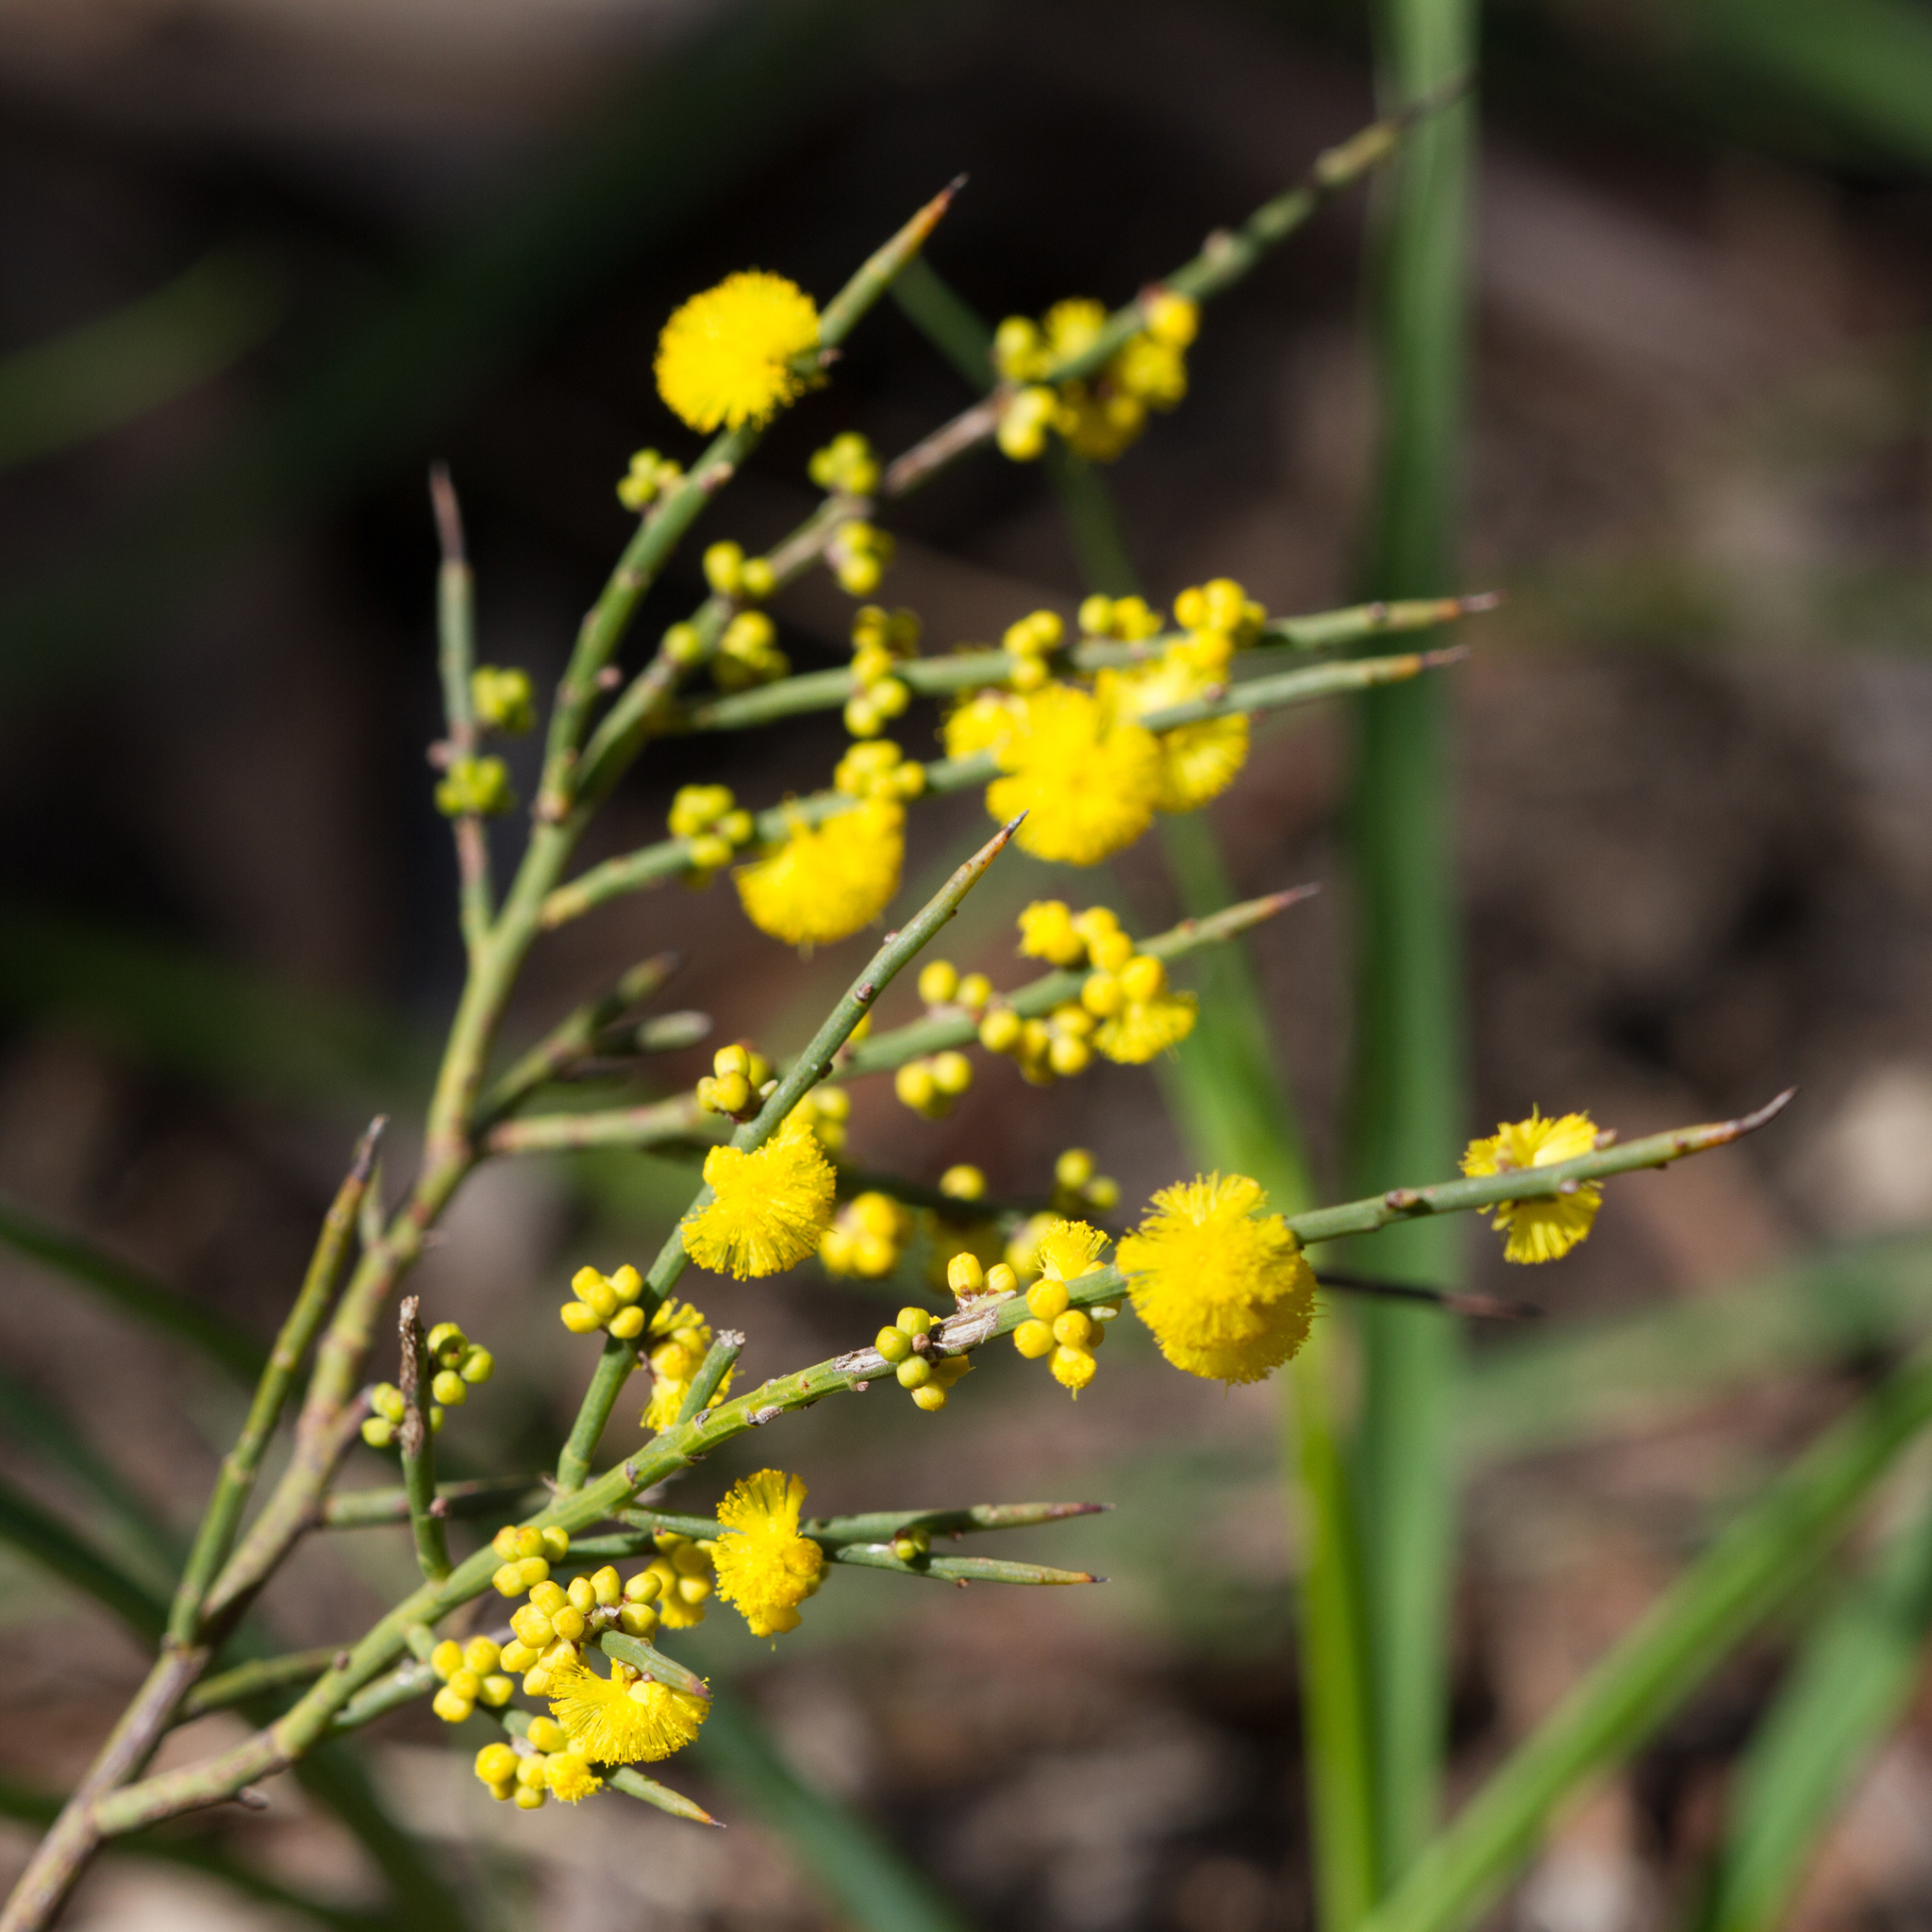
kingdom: Plantae
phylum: Tracheophyta
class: Magnoliopsida
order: Fabales
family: Fabaceae
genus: Acacia
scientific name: Acacia spinescens
